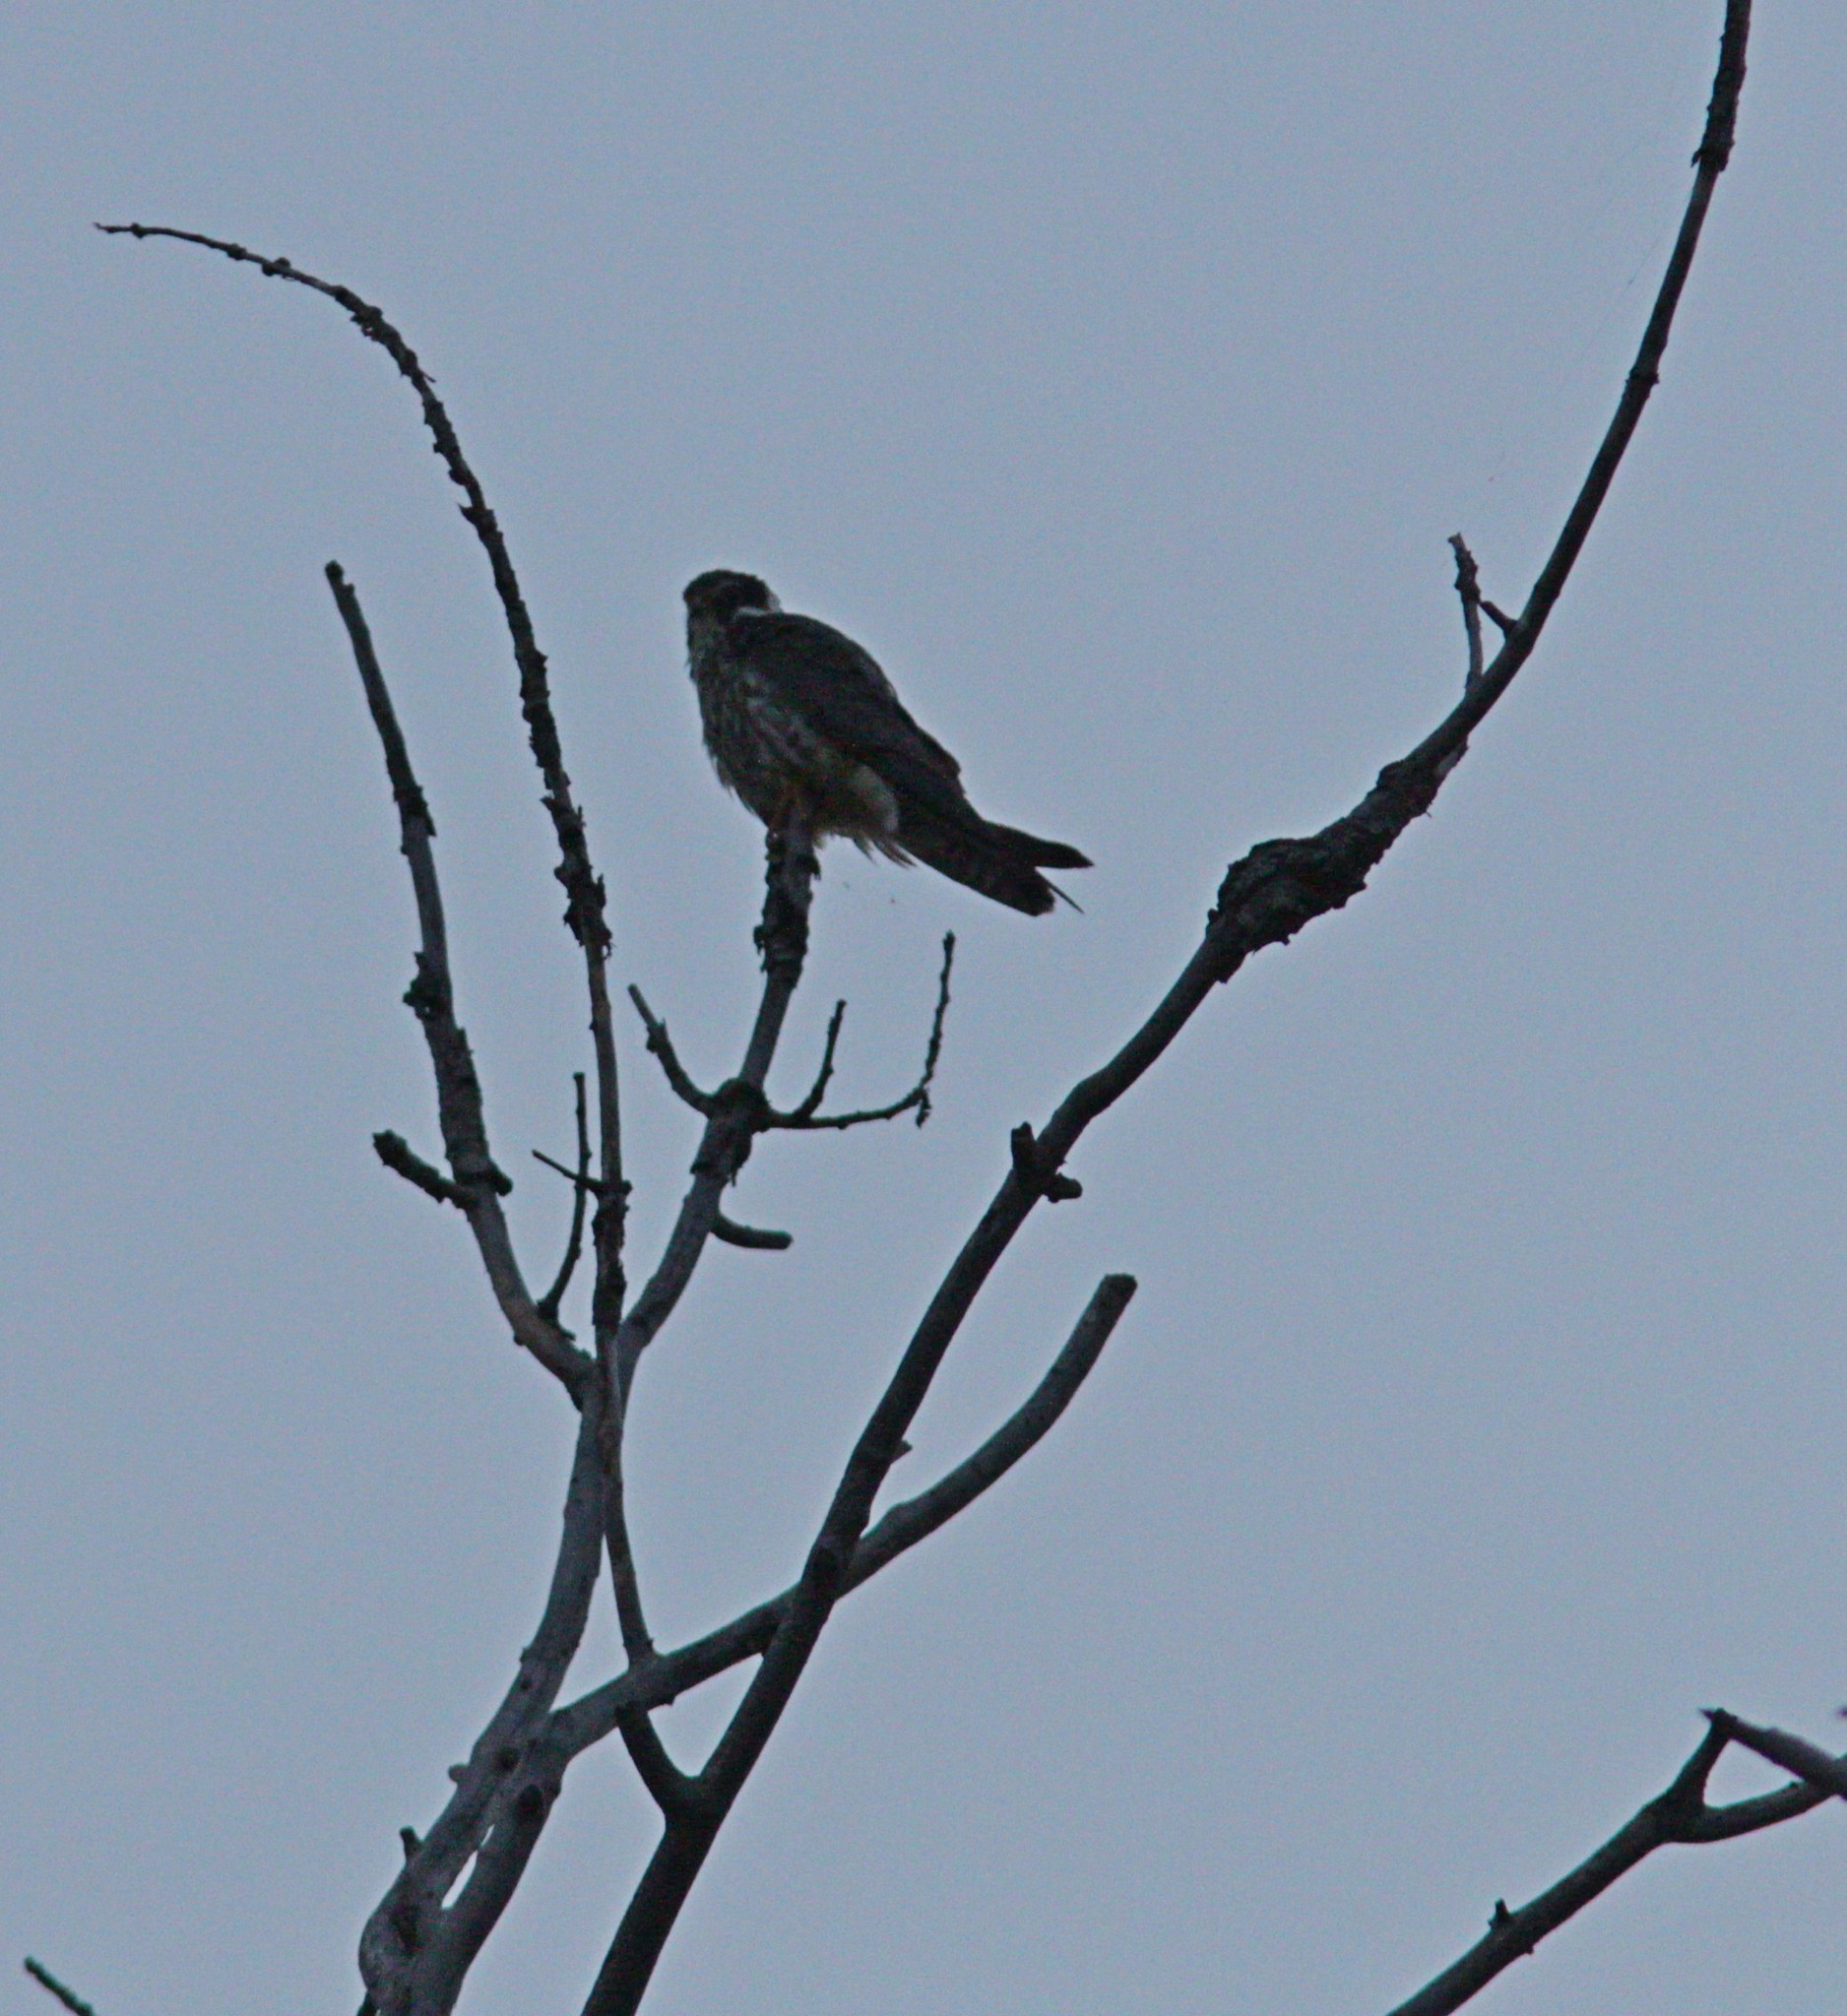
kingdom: Animalia
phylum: Chordata
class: Aves
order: Falconiformes
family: Falconidae
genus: Falco
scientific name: Falco subbuteo
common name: Eurasian hobby
